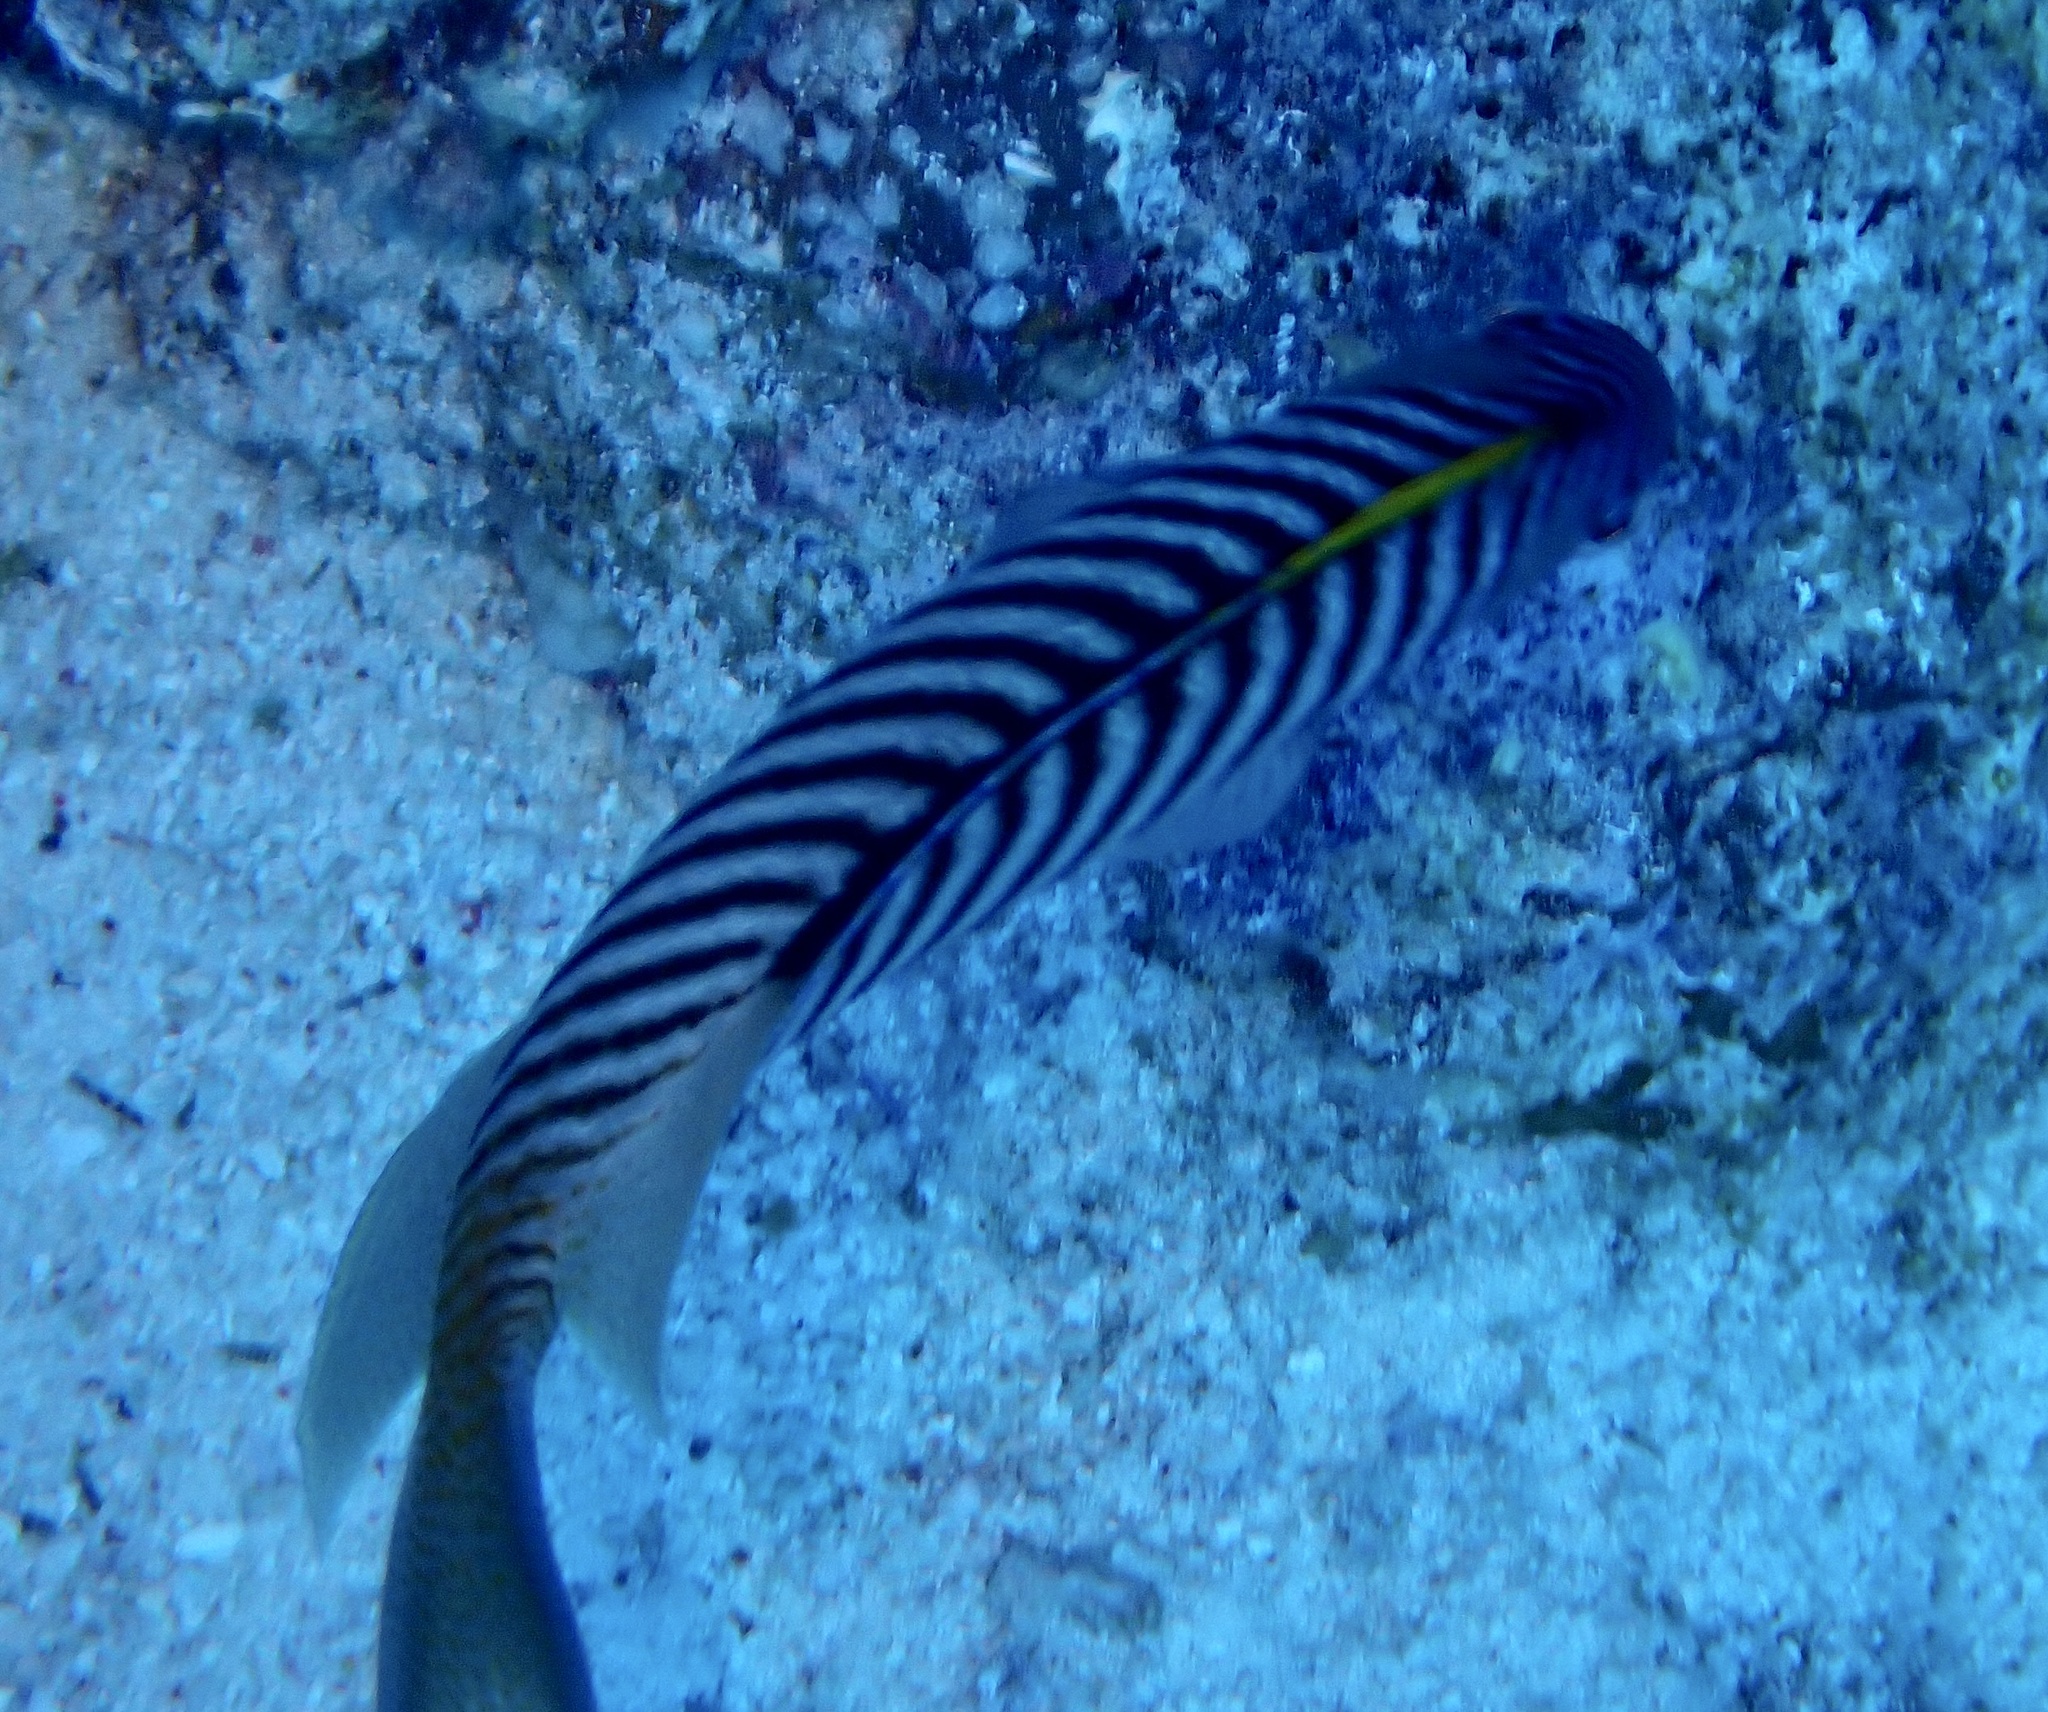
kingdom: Animalia
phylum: Chordata
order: Perciformes
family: Pomacanthidae
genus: Genicanthus
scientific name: Genicanthus caudovittatus
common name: Lyretail angelfish
